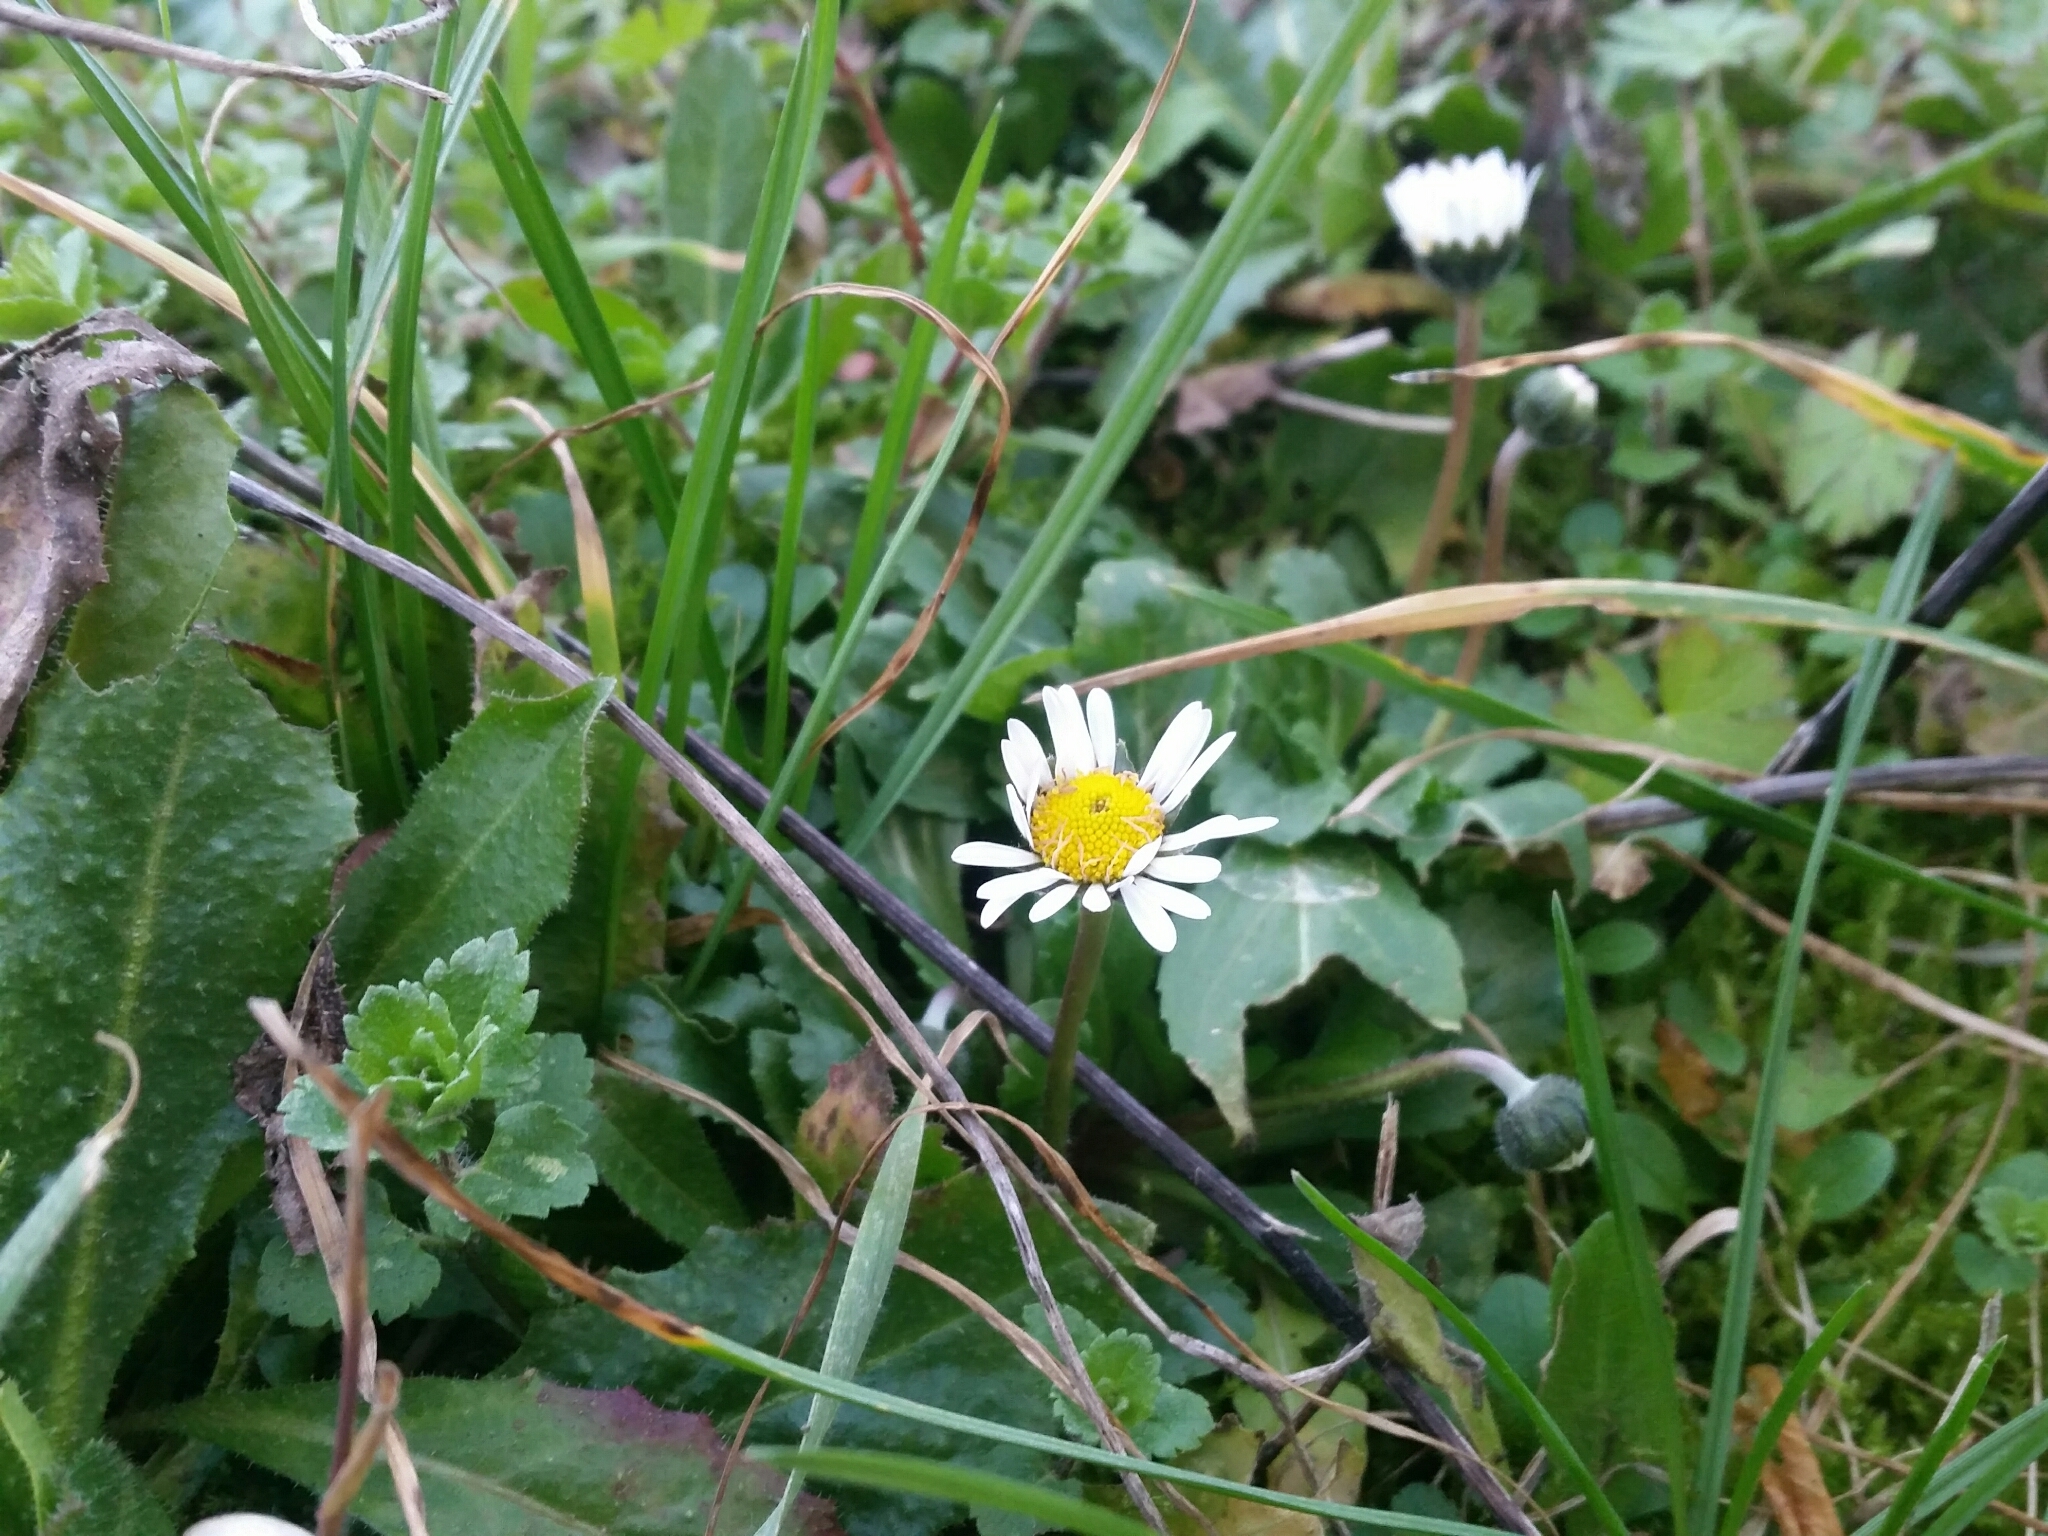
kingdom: Plantae
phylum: Tracheophyta
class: Magnoliopsida
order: Asterales
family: Asteraceae
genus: Bellis
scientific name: Bellis perennis
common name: Lawndaisy
